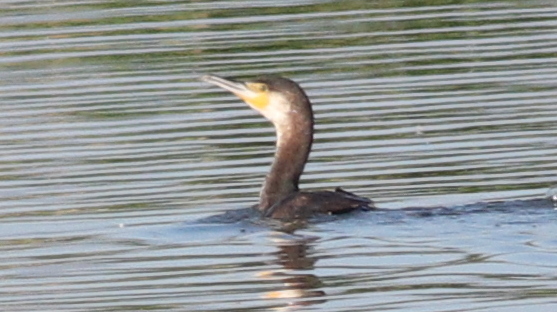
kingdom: Animalia
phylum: Chordata
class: Aves
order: Suliformes
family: Phalacrocoracidae
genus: Phalacrocorax
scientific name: Phalacrocorax carbo
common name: Great cormorant
